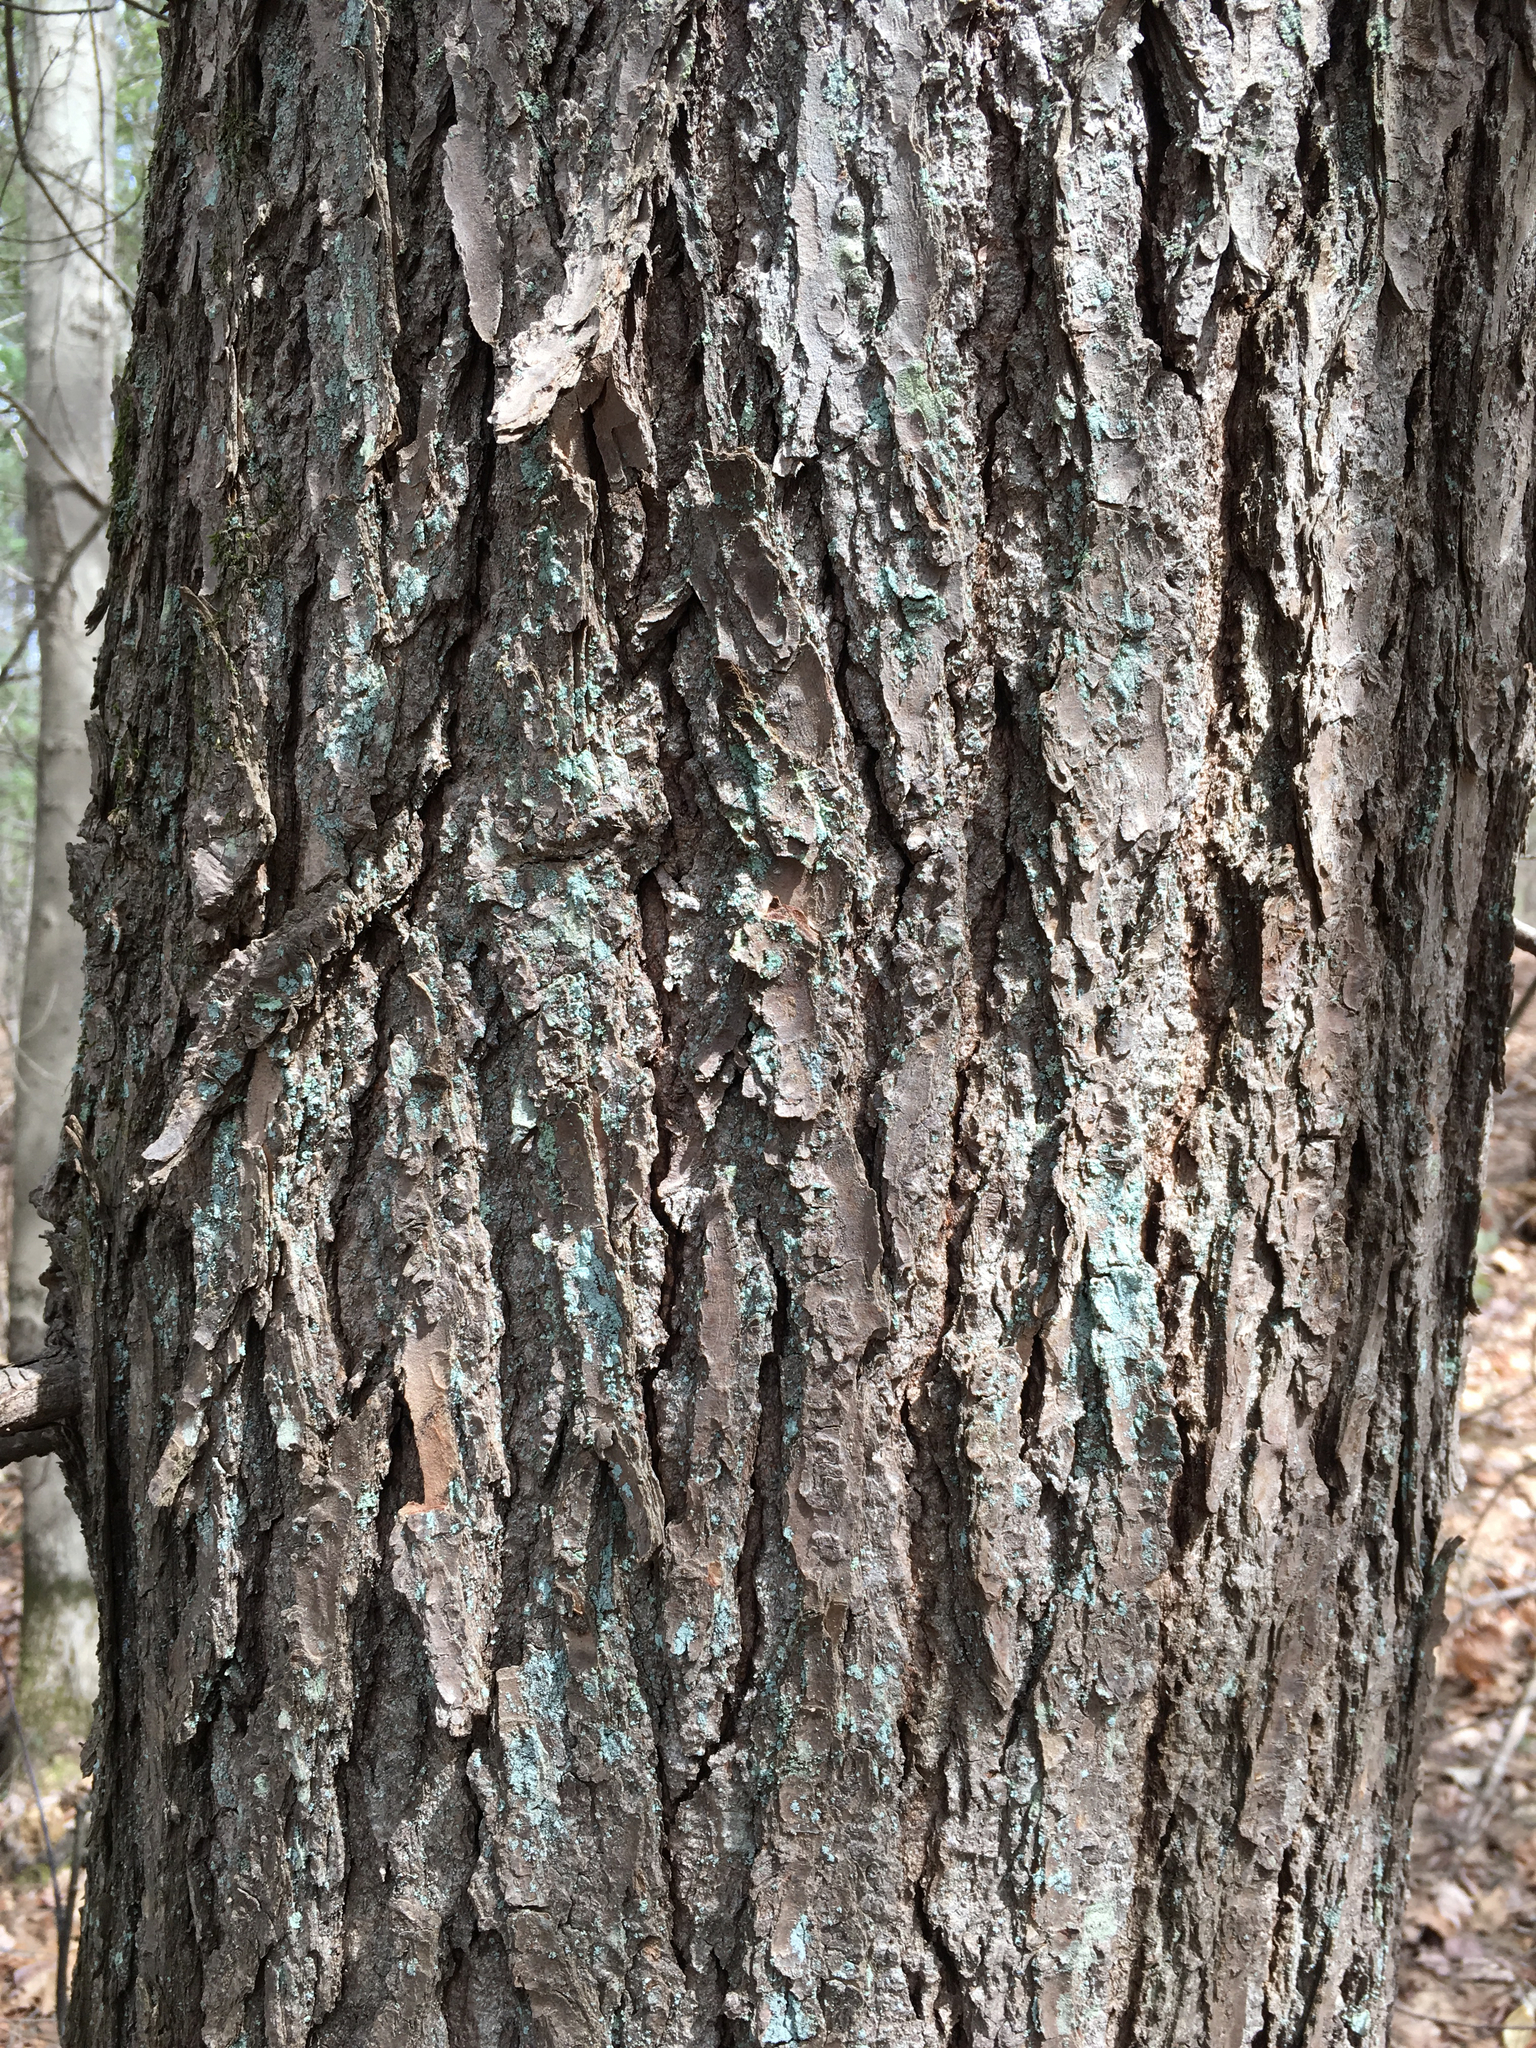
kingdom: Plantae
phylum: Tracheophyta
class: Pinopsida
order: Pinales
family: Pinaceae
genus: Tsuga
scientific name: Tsuga canadensis
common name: Eastern hemlock
